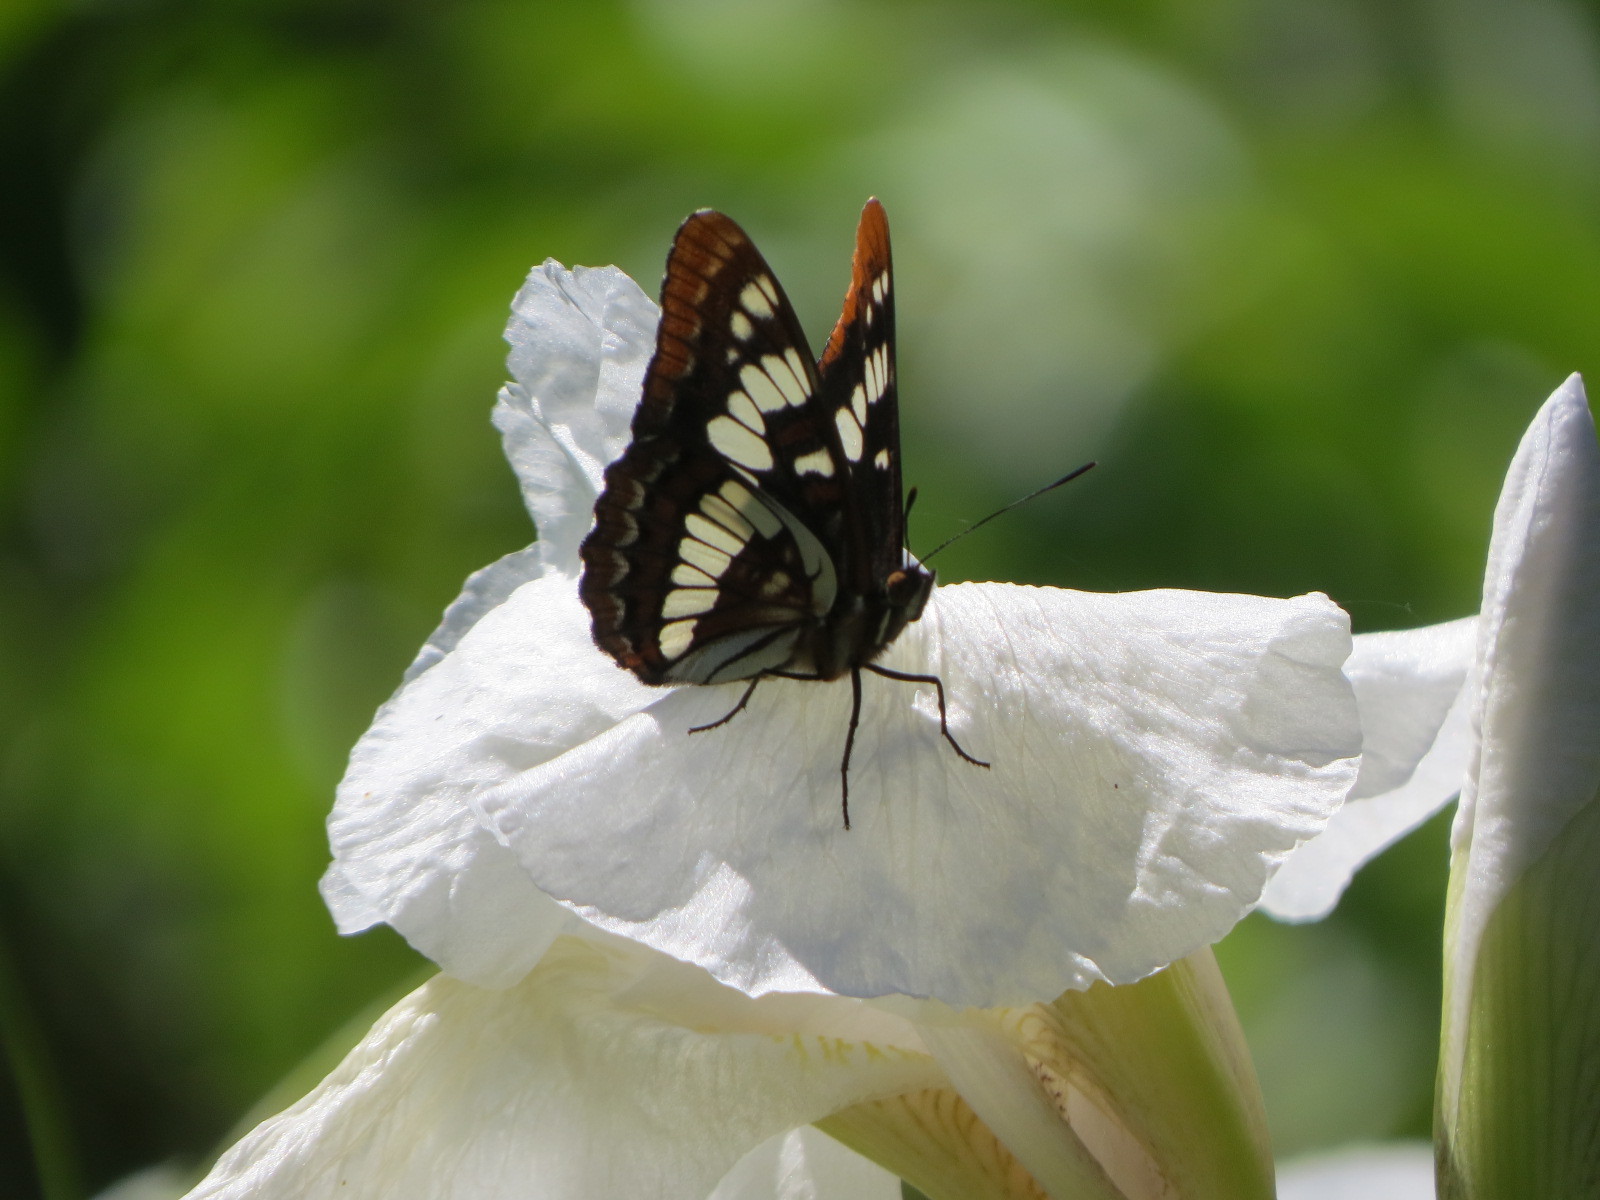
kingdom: Animalia
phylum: Arthropoda
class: Insecta
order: Lepidoptera
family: Nymphalidae
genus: Limenitis
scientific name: Limenitis lorquini
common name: Lorquin's admiral
